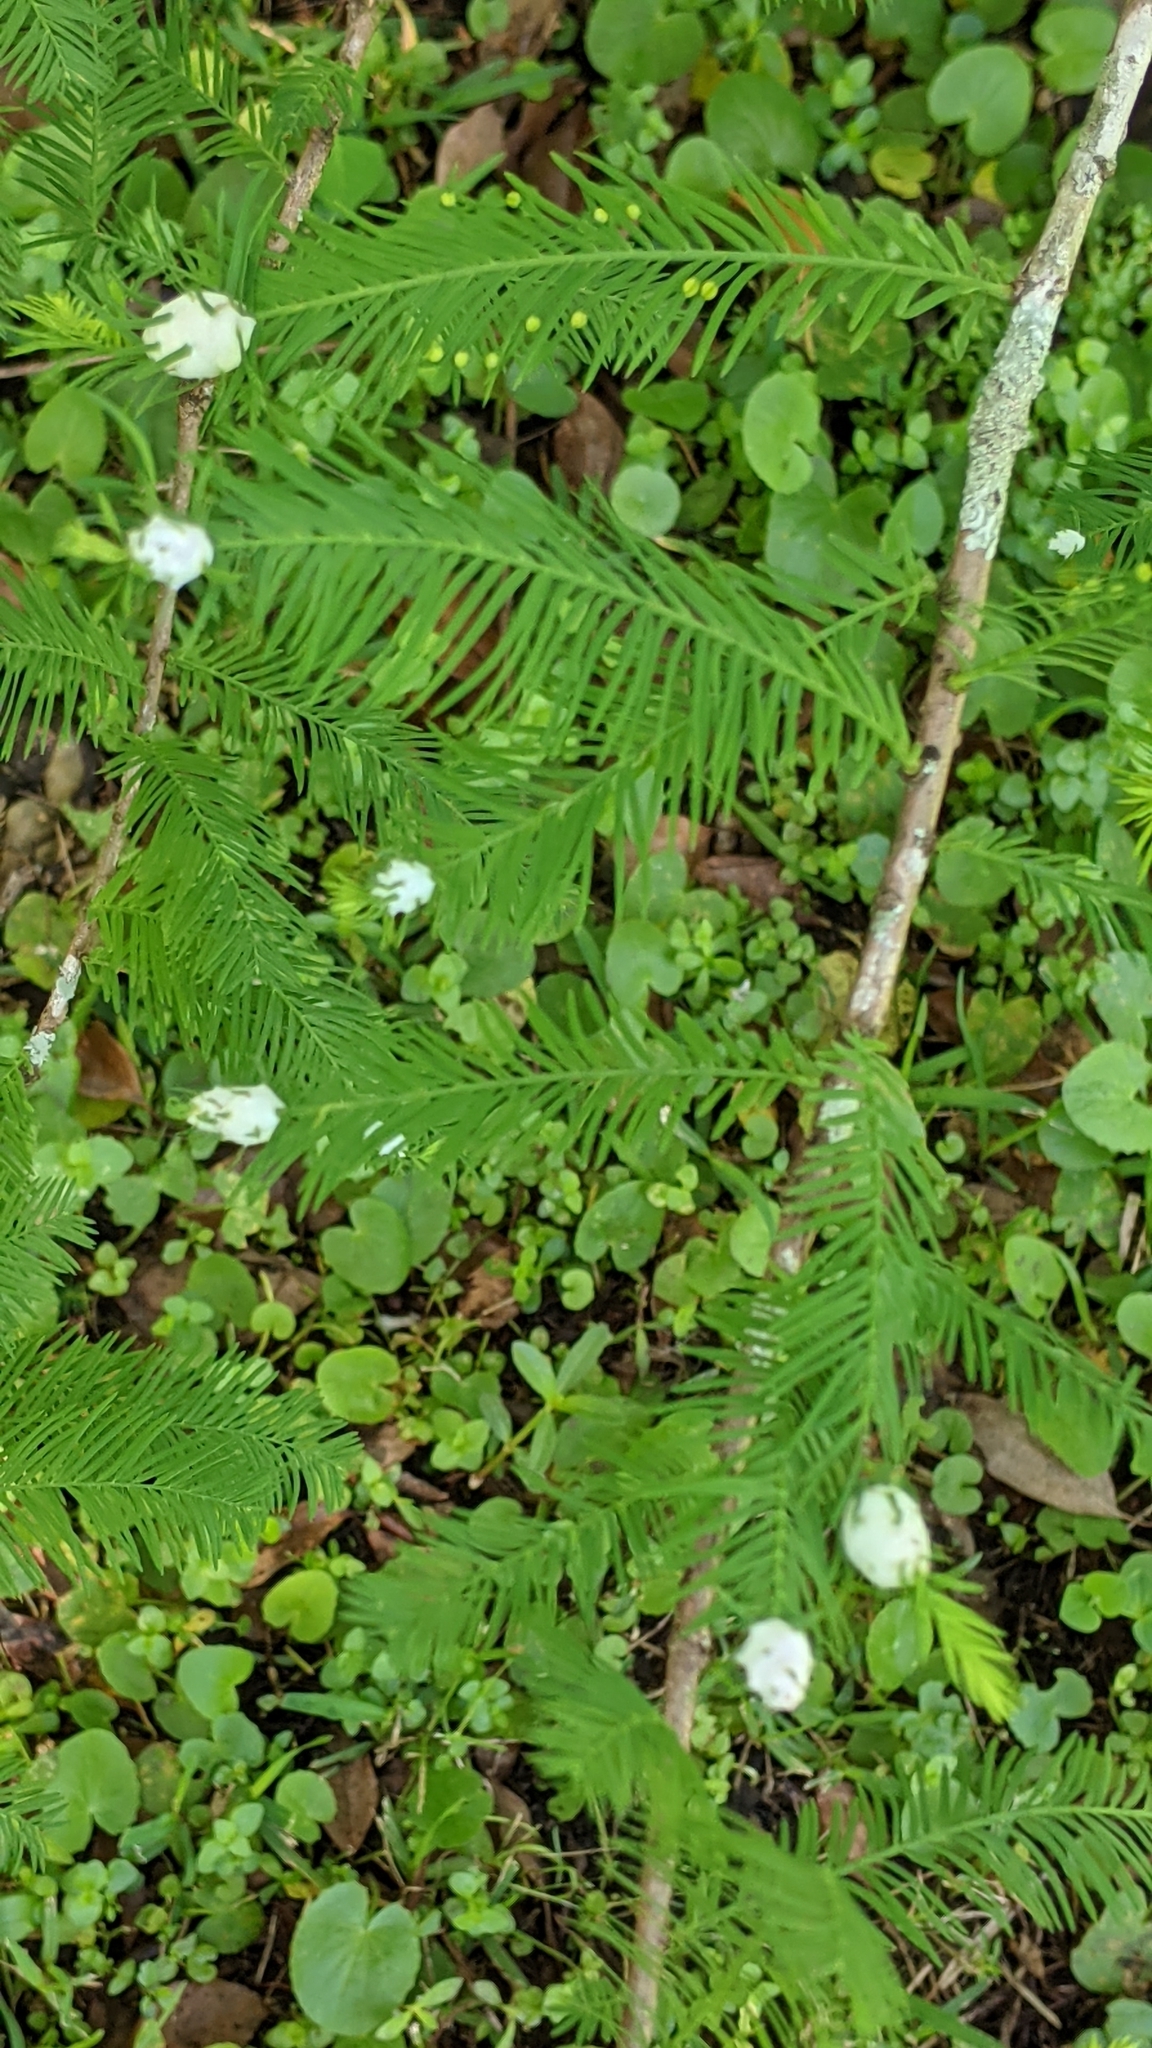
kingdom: Animalia
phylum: Arthropoda
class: Insecta
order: Diptera
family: Cecidomyiidae
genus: Taxodiomyia
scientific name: Taxodiomyia cupressiananassa
